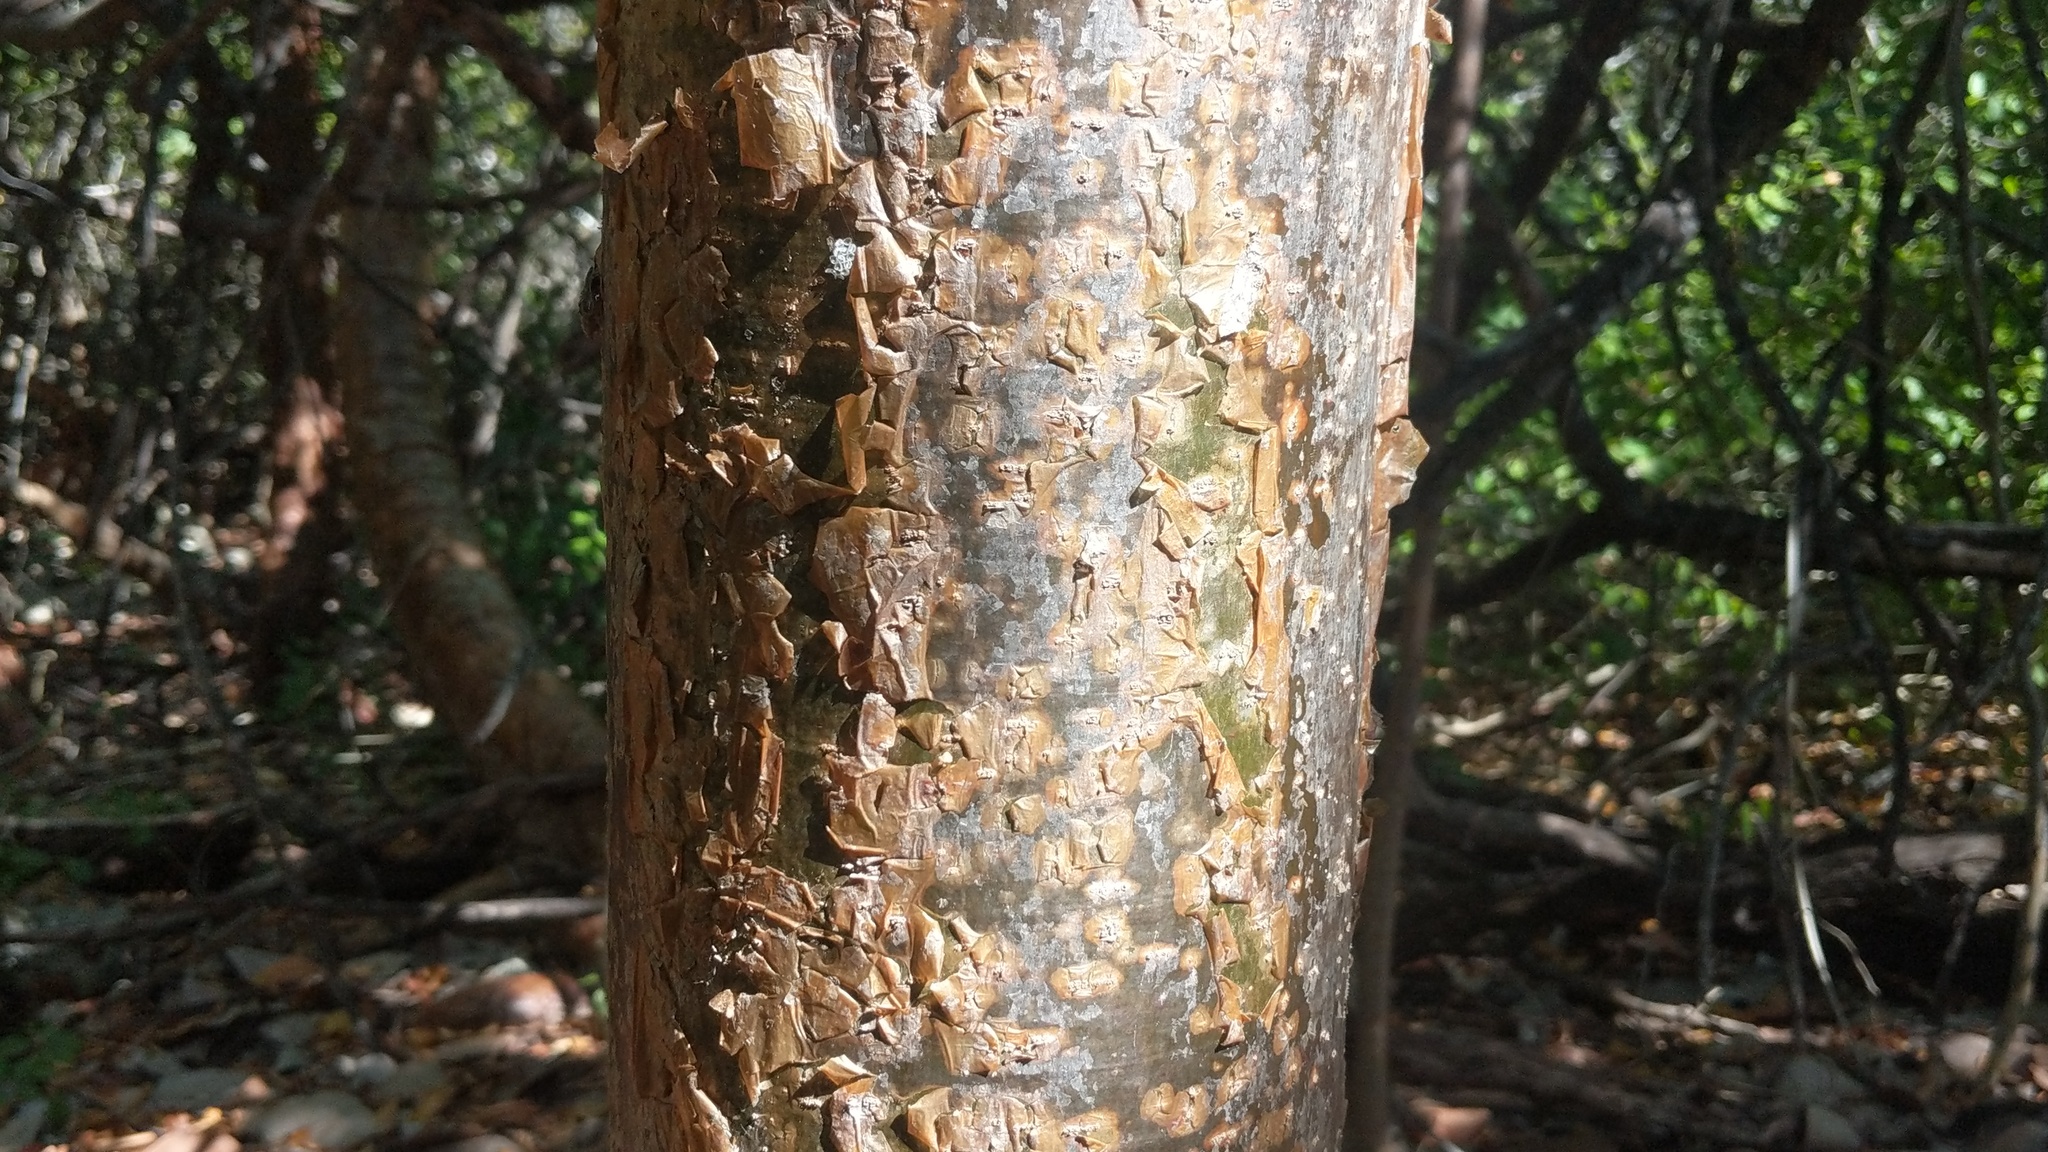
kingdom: Plantae
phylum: Tracheophyta
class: Magnoliopsida
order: Sapindales
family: Burseraceae
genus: Bursera
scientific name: Bursera simaruba
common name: Turpentine tree
